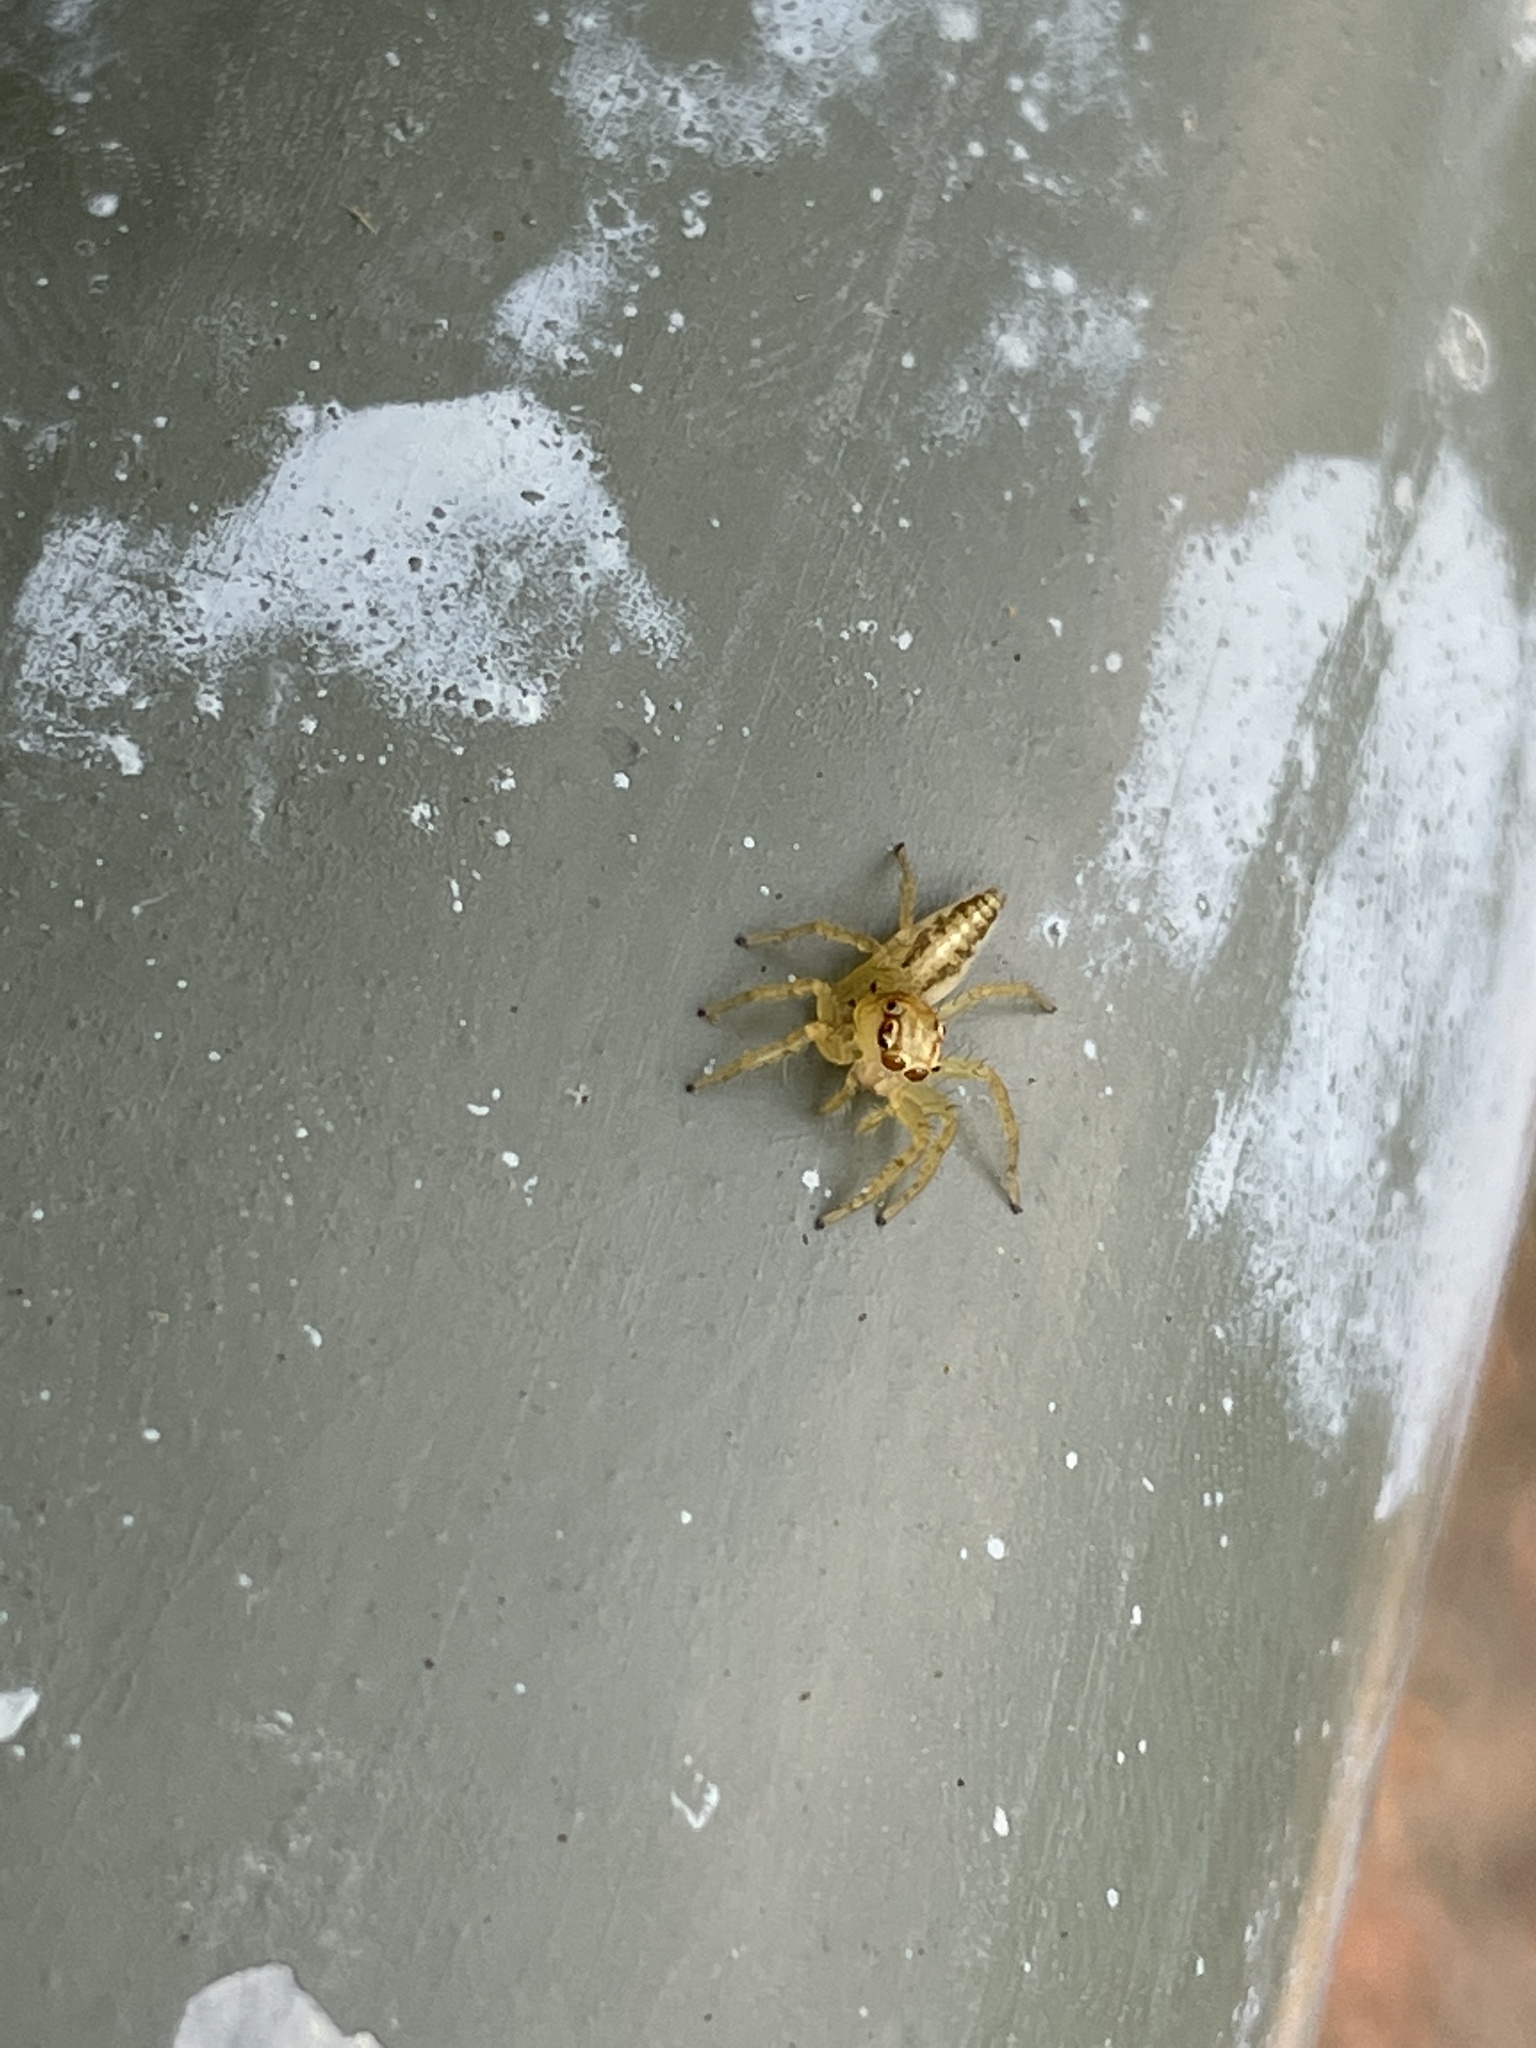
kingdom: Animalia
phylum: Arthropoda
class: Arachnida
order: Araneae
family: Salticidae
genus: Telamonia
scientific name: Telamonia caprina
